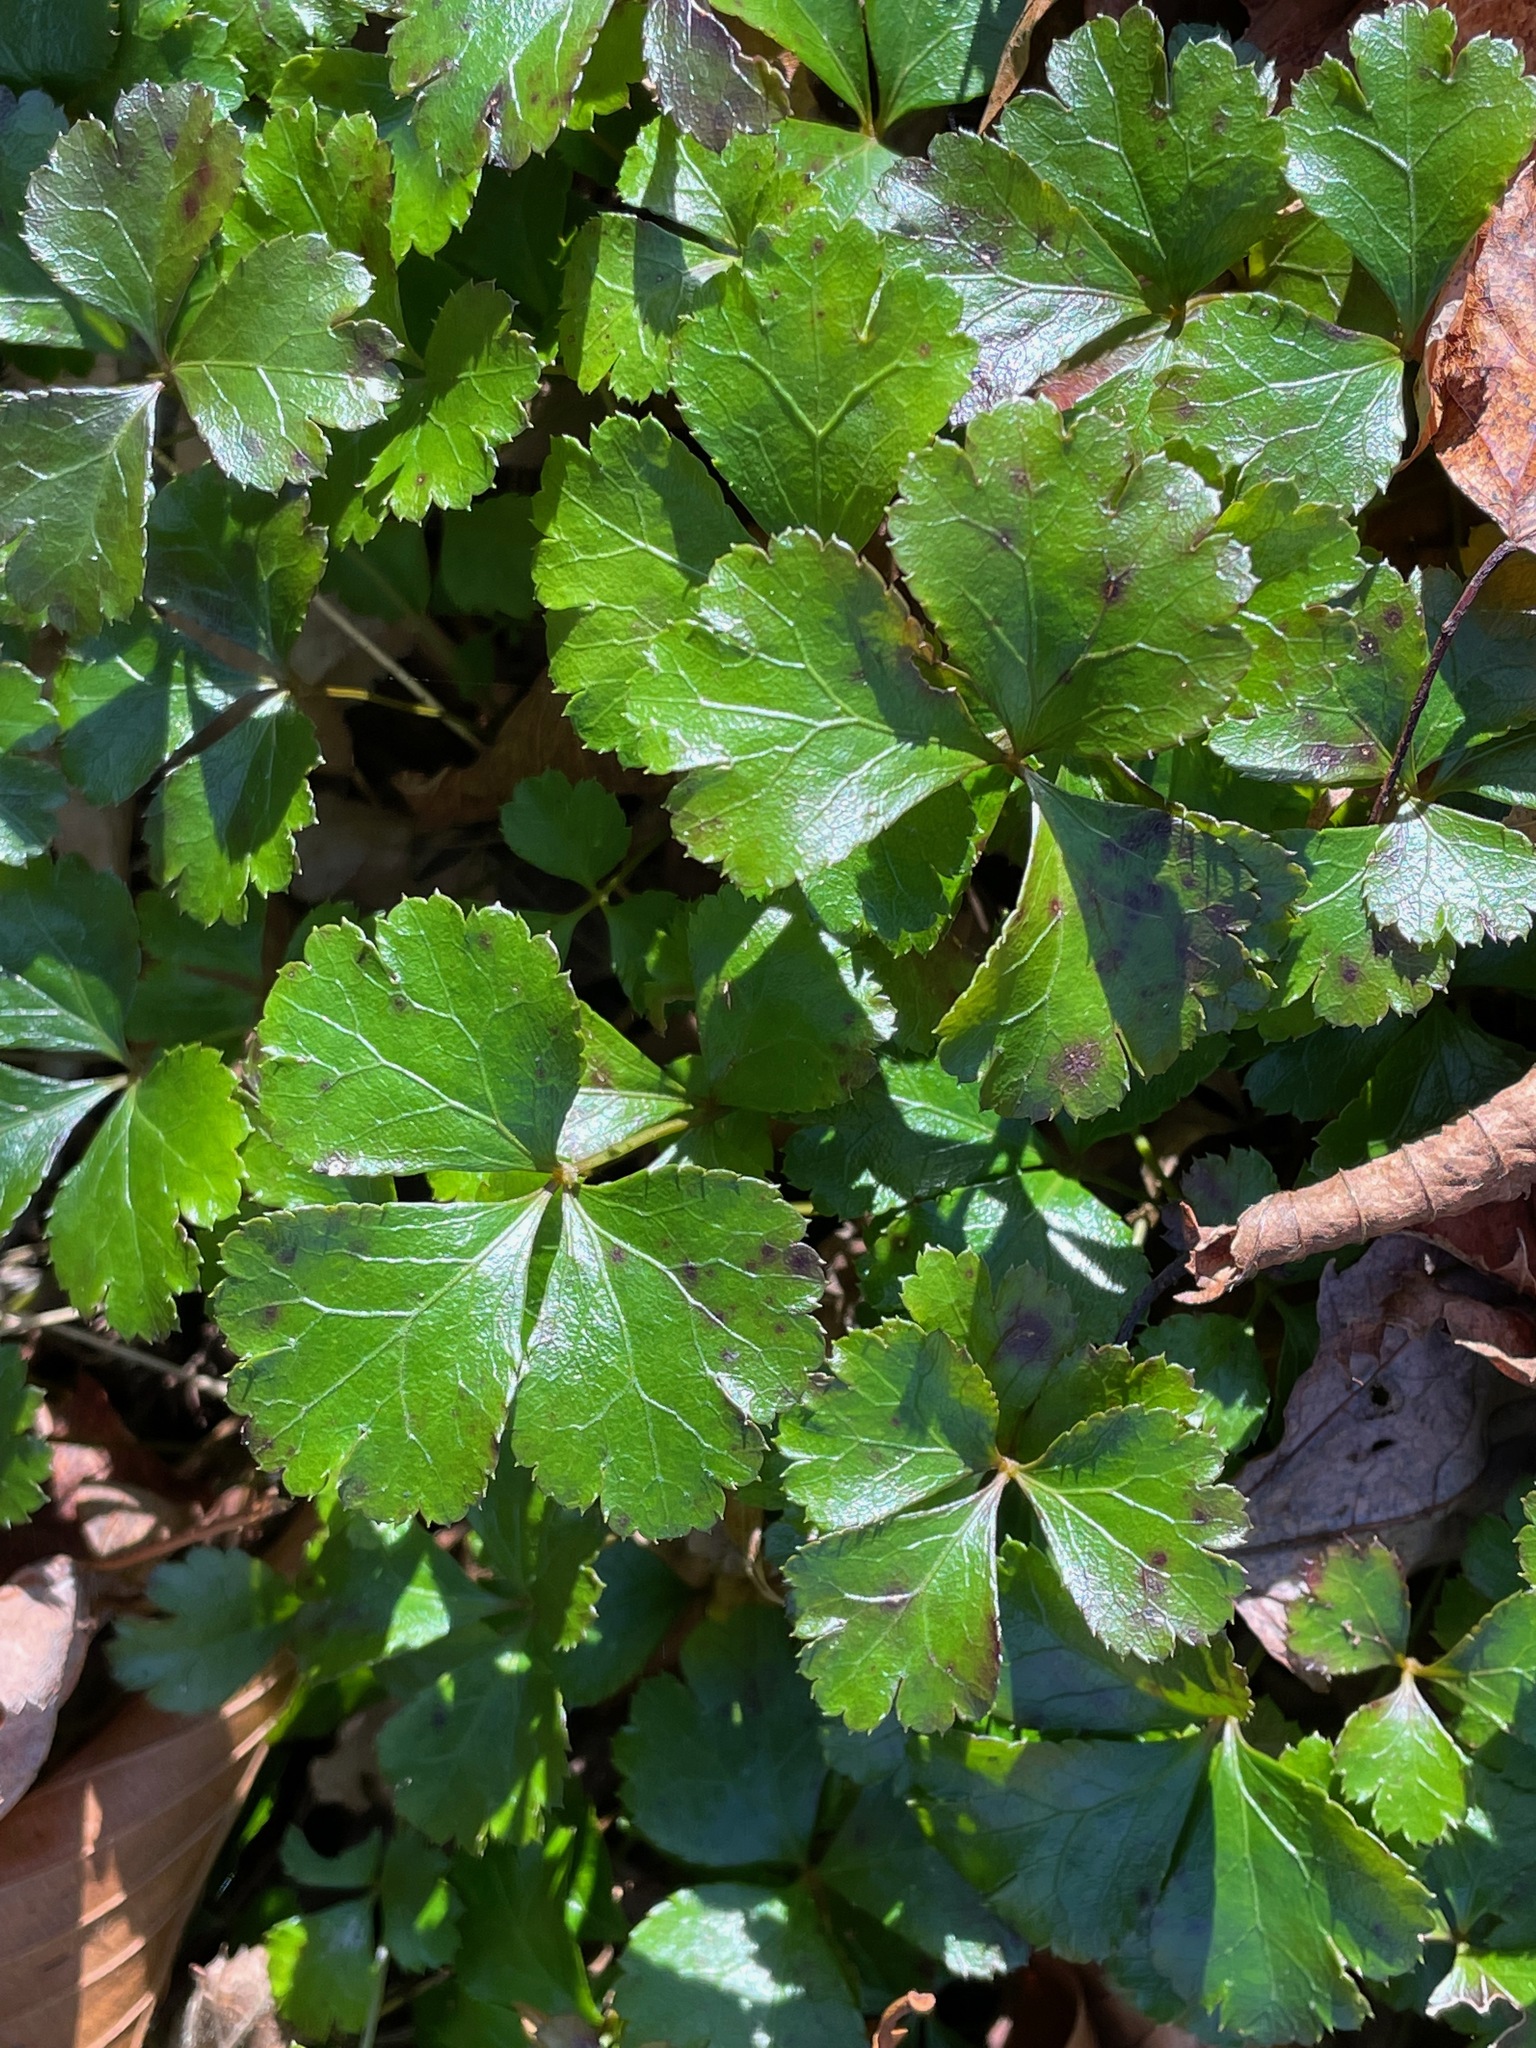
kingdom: Plantae
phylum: Tracheophyta
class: Magnoliopsida
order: Ranunculales
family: Ranunculaceae
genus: Coptis
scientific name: Coptis trifolia
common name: Canker-root
